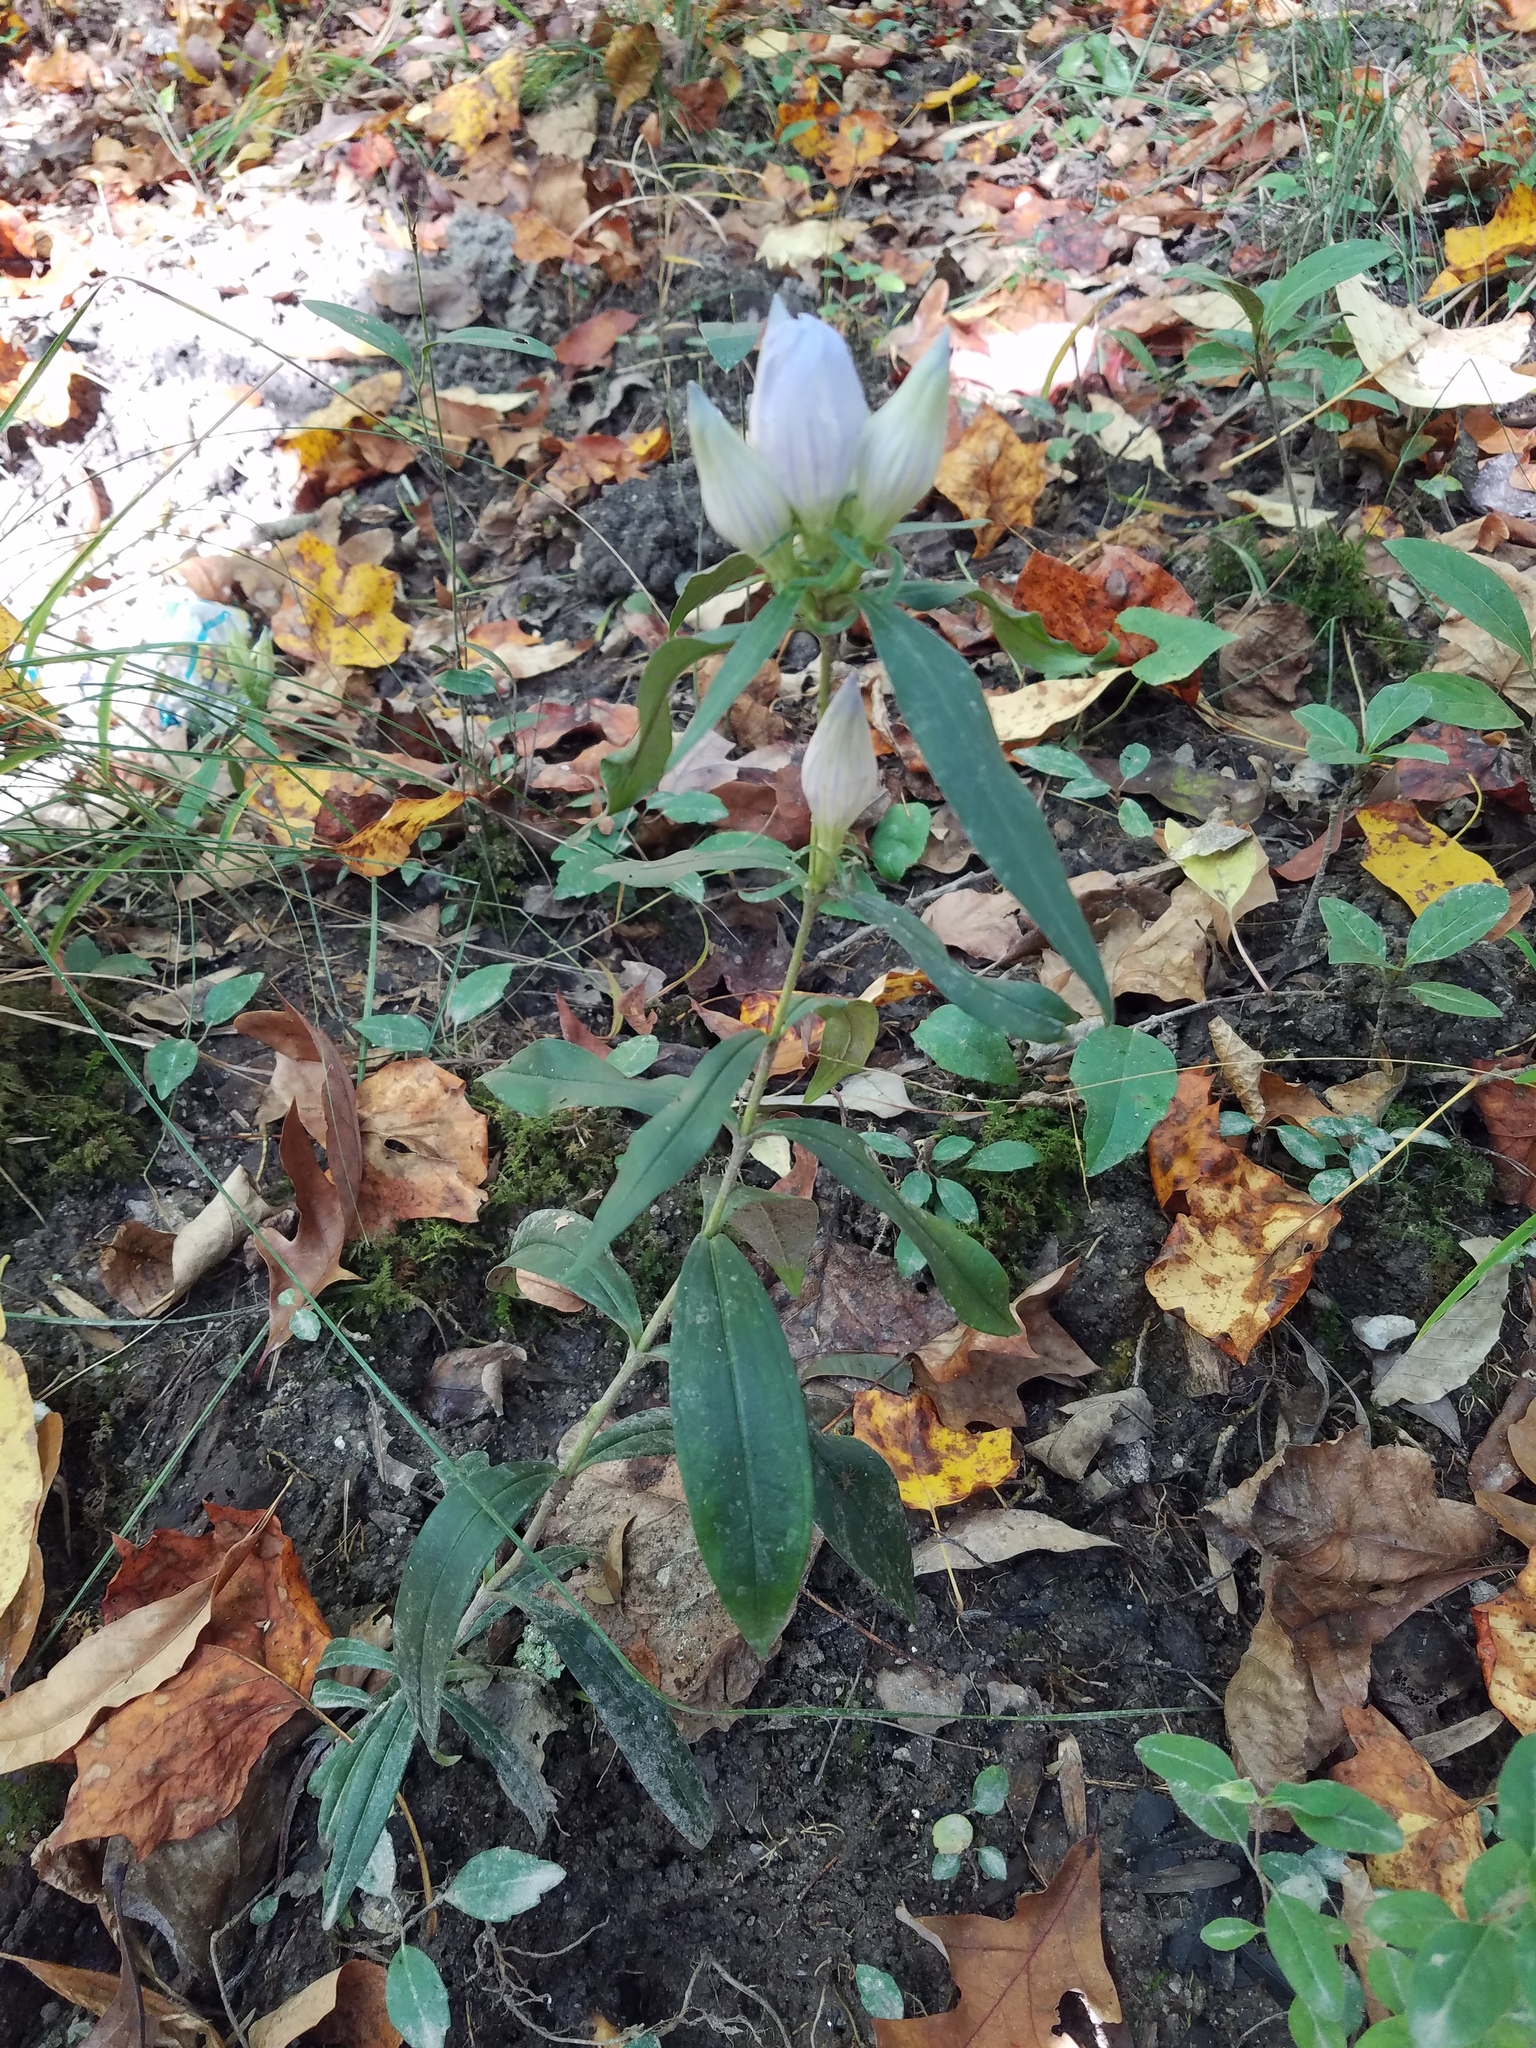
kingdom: Plantae
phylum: Tracheophyta
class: Magnoliopsida
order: Gentianales
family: Gentianaceae
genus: Gentiana
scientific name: Gentiana saponaria
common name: Soapwort gentian
